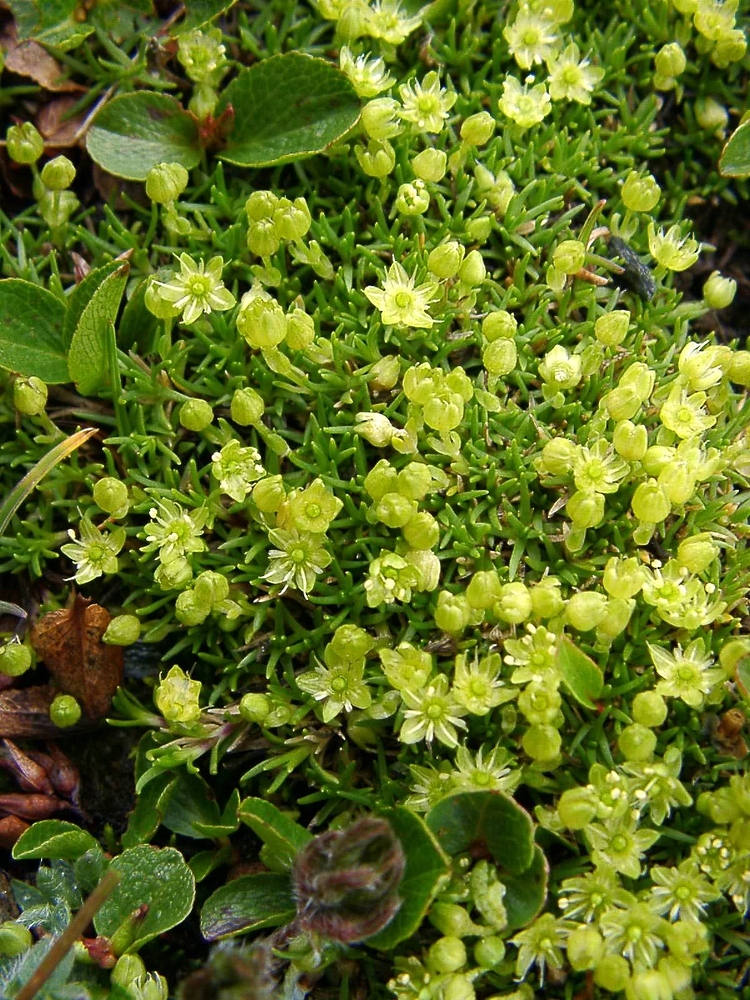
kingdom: Plantae
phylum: Tracheophyta
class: Magnoliopsida
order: Caryophyllales
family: Caryophyllaceae
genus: Cherleria
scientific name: Cherleria sedoides
